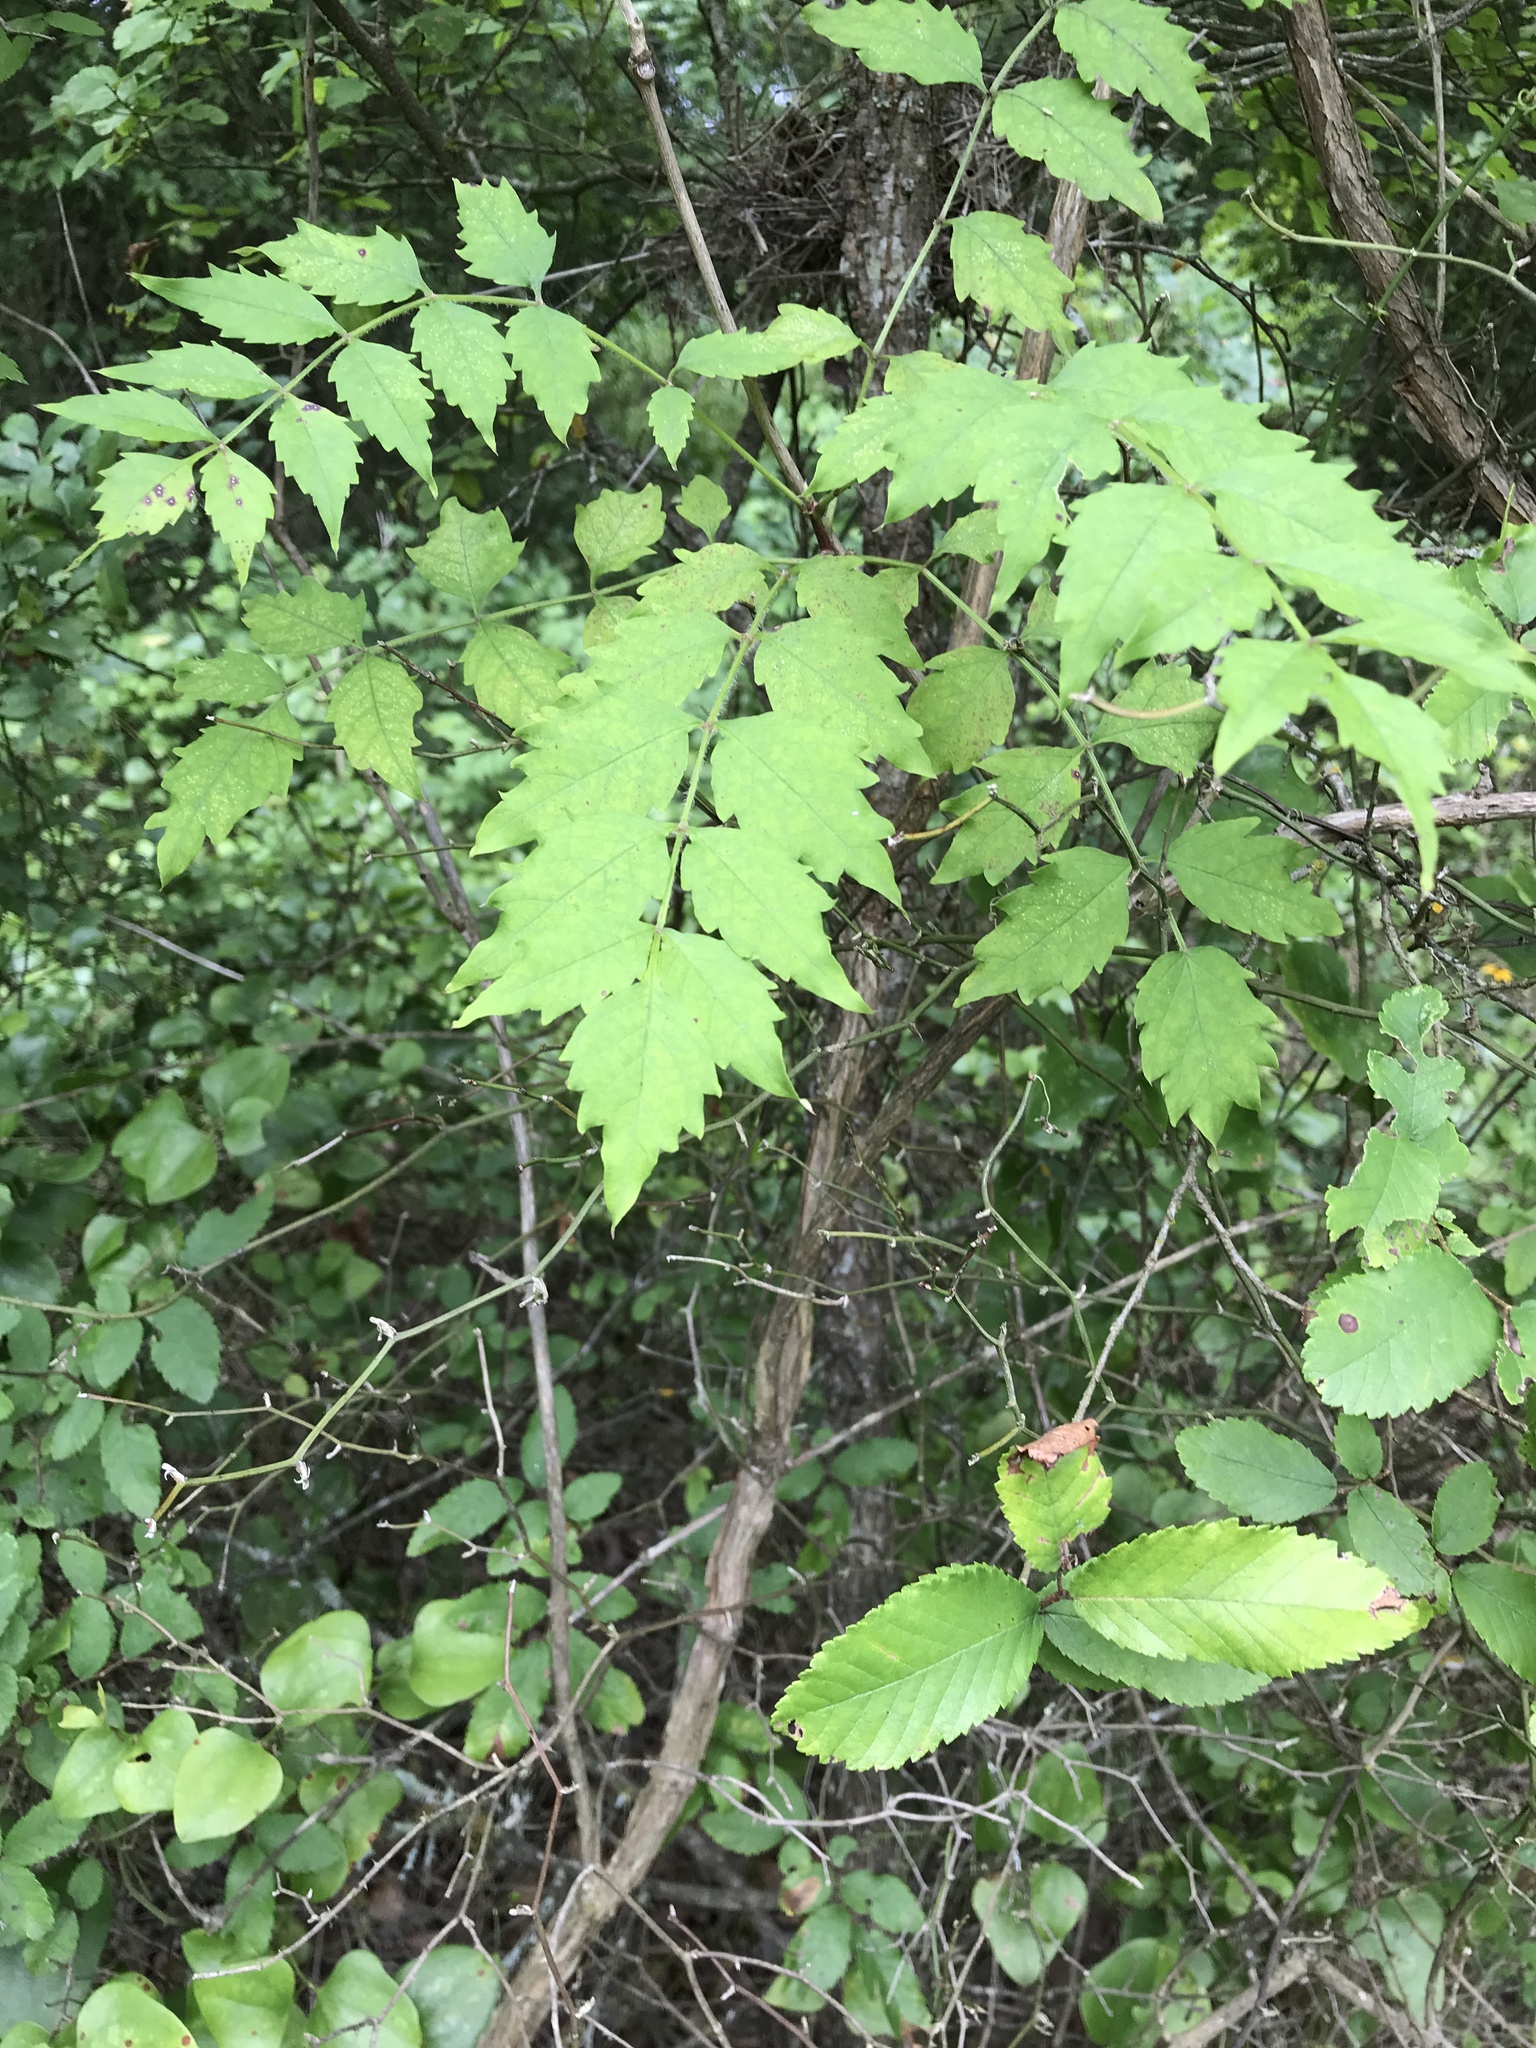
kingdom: Plantae
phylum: Tracheophyta
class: Magnoliopsida
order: Lamiales
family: Bignoniaceae
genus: Campsis
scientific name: Campsis radicans
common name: Trumpet-creeper
